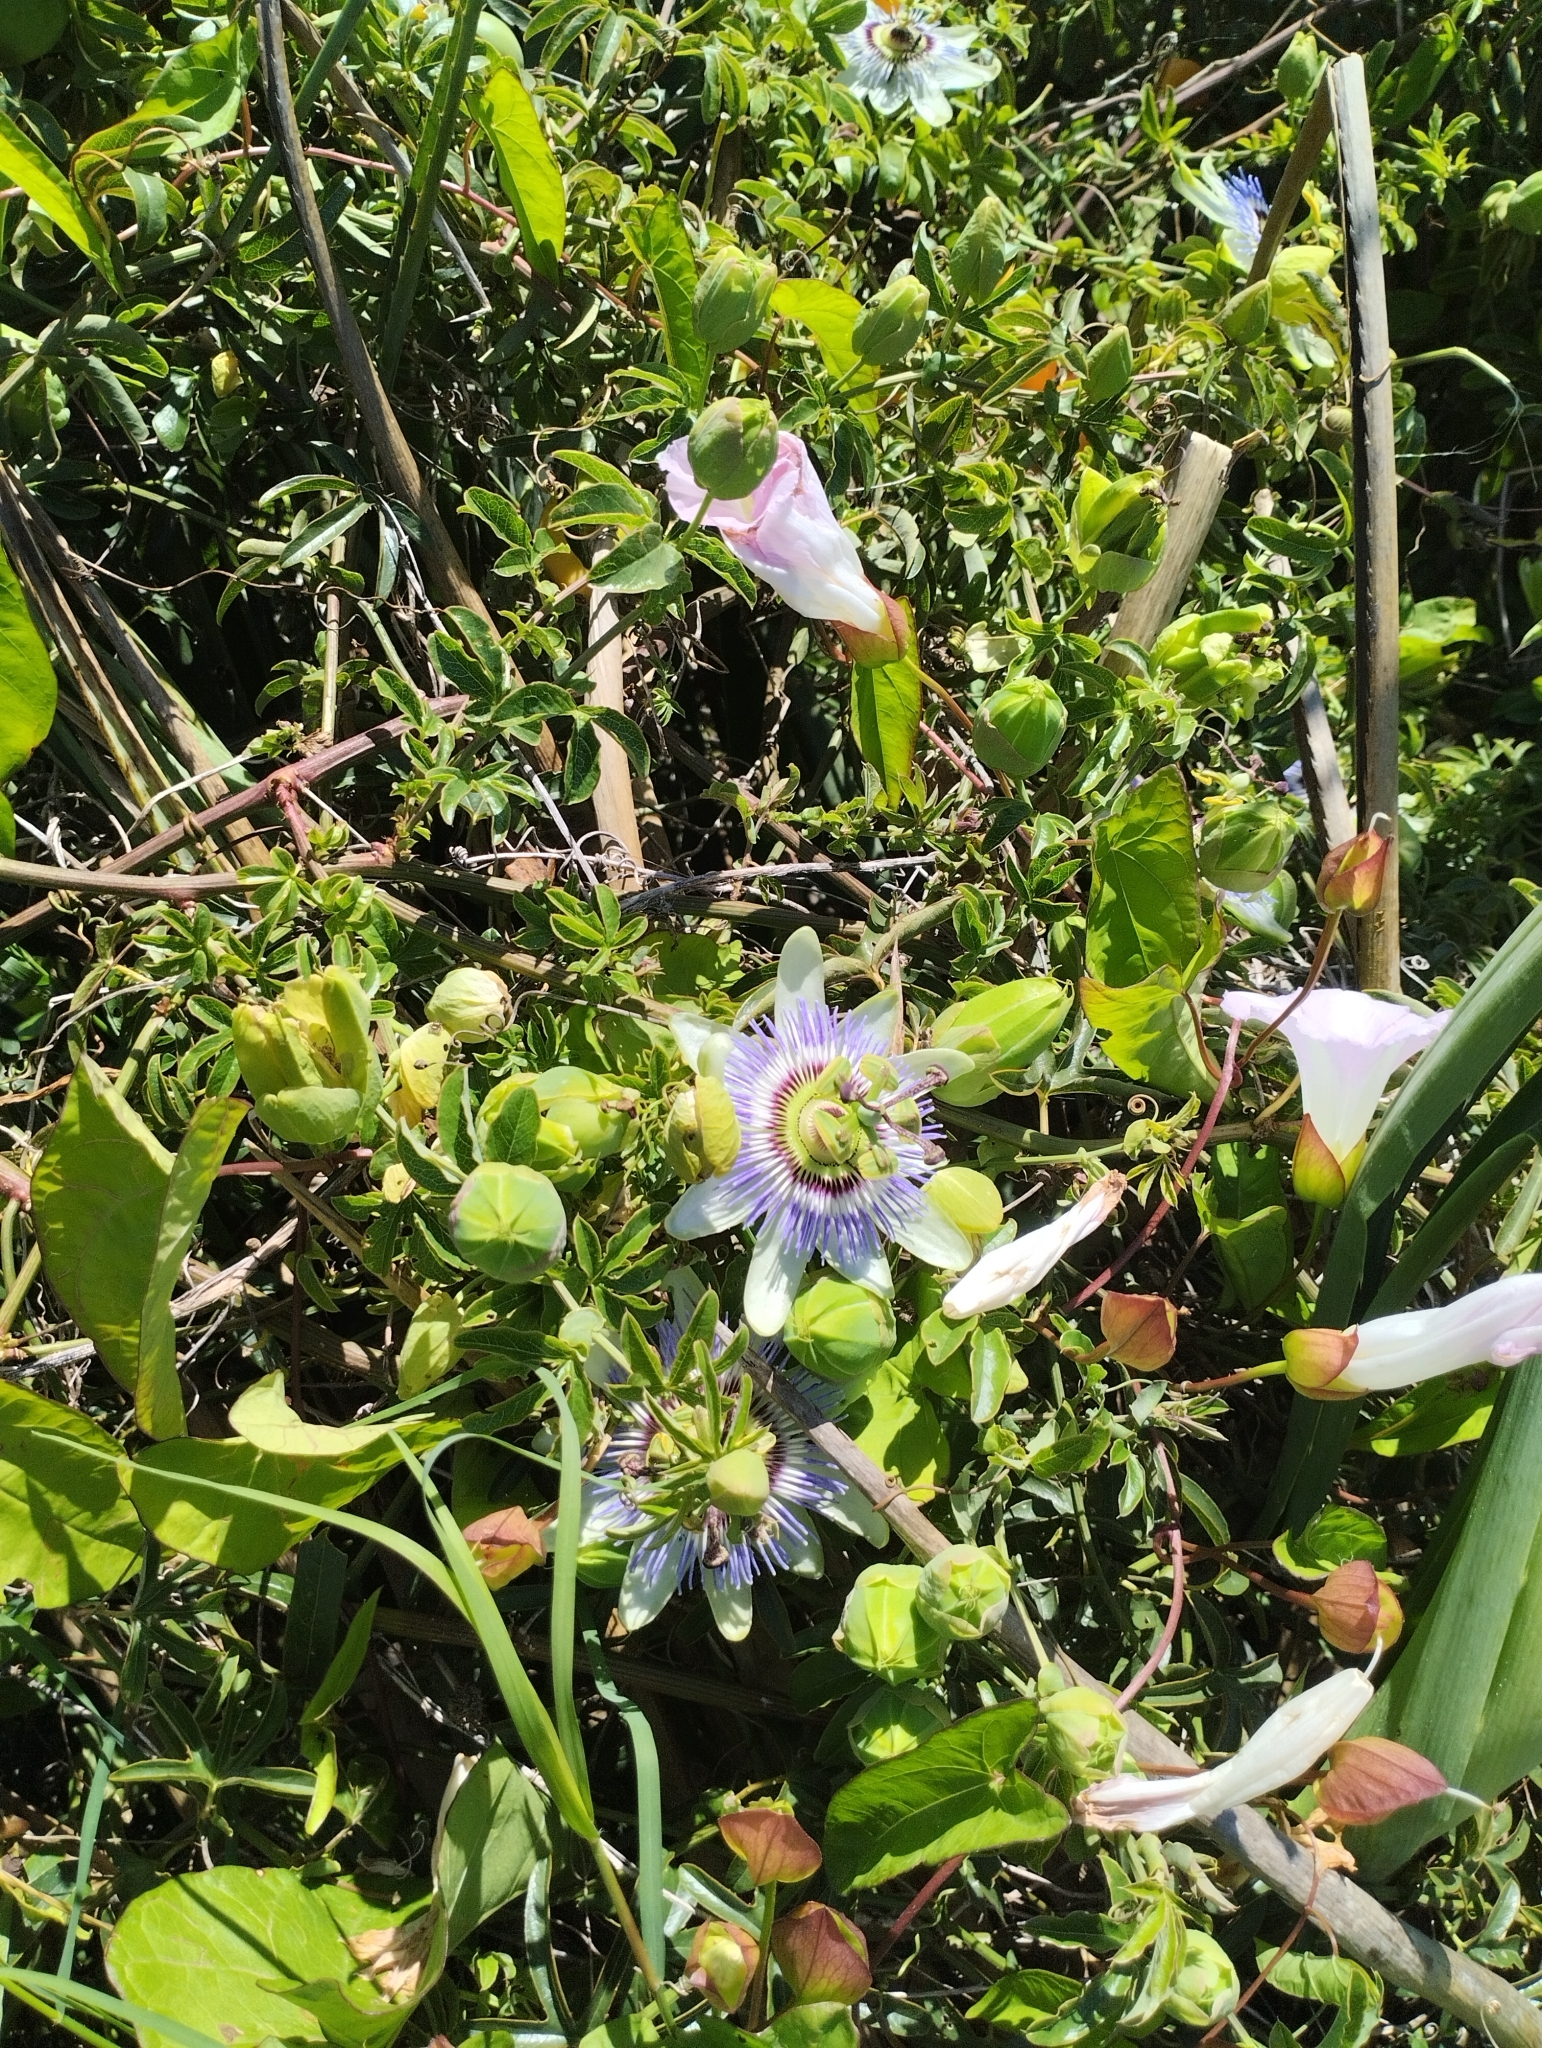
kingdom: Plantae
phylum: Tracheophyta
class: Magnoliopsida
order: Malpighiales
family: Passifloraceae
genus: Passiflora
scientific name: Passiflora caerulea
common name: Blue passionflower
